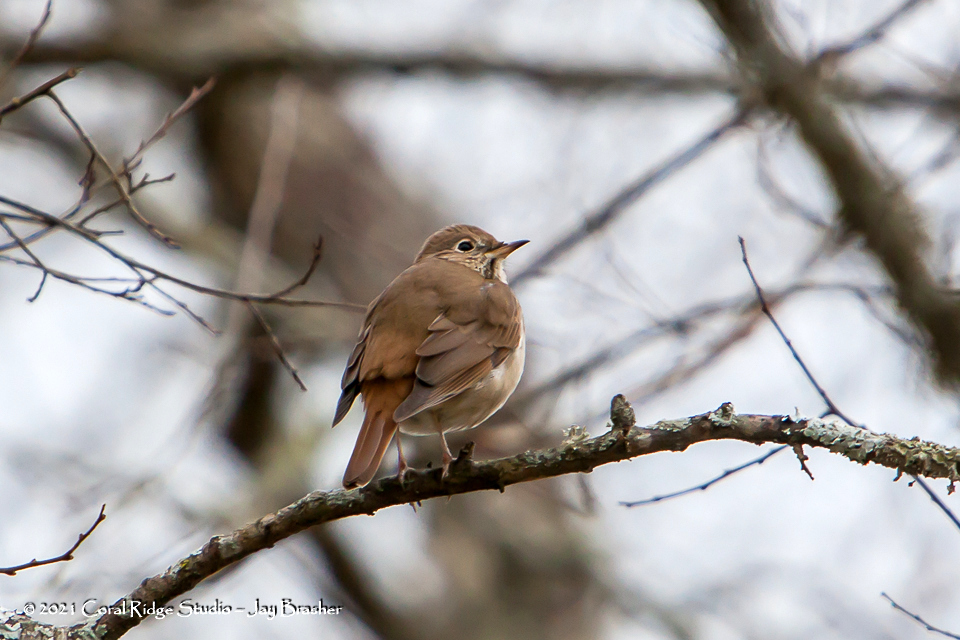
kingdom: Animalia
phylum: Chordata
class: Aves
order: Passeriformes
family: Turdidae
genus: Catharus
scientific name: Catharus guttatus
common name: Hermit thrush
